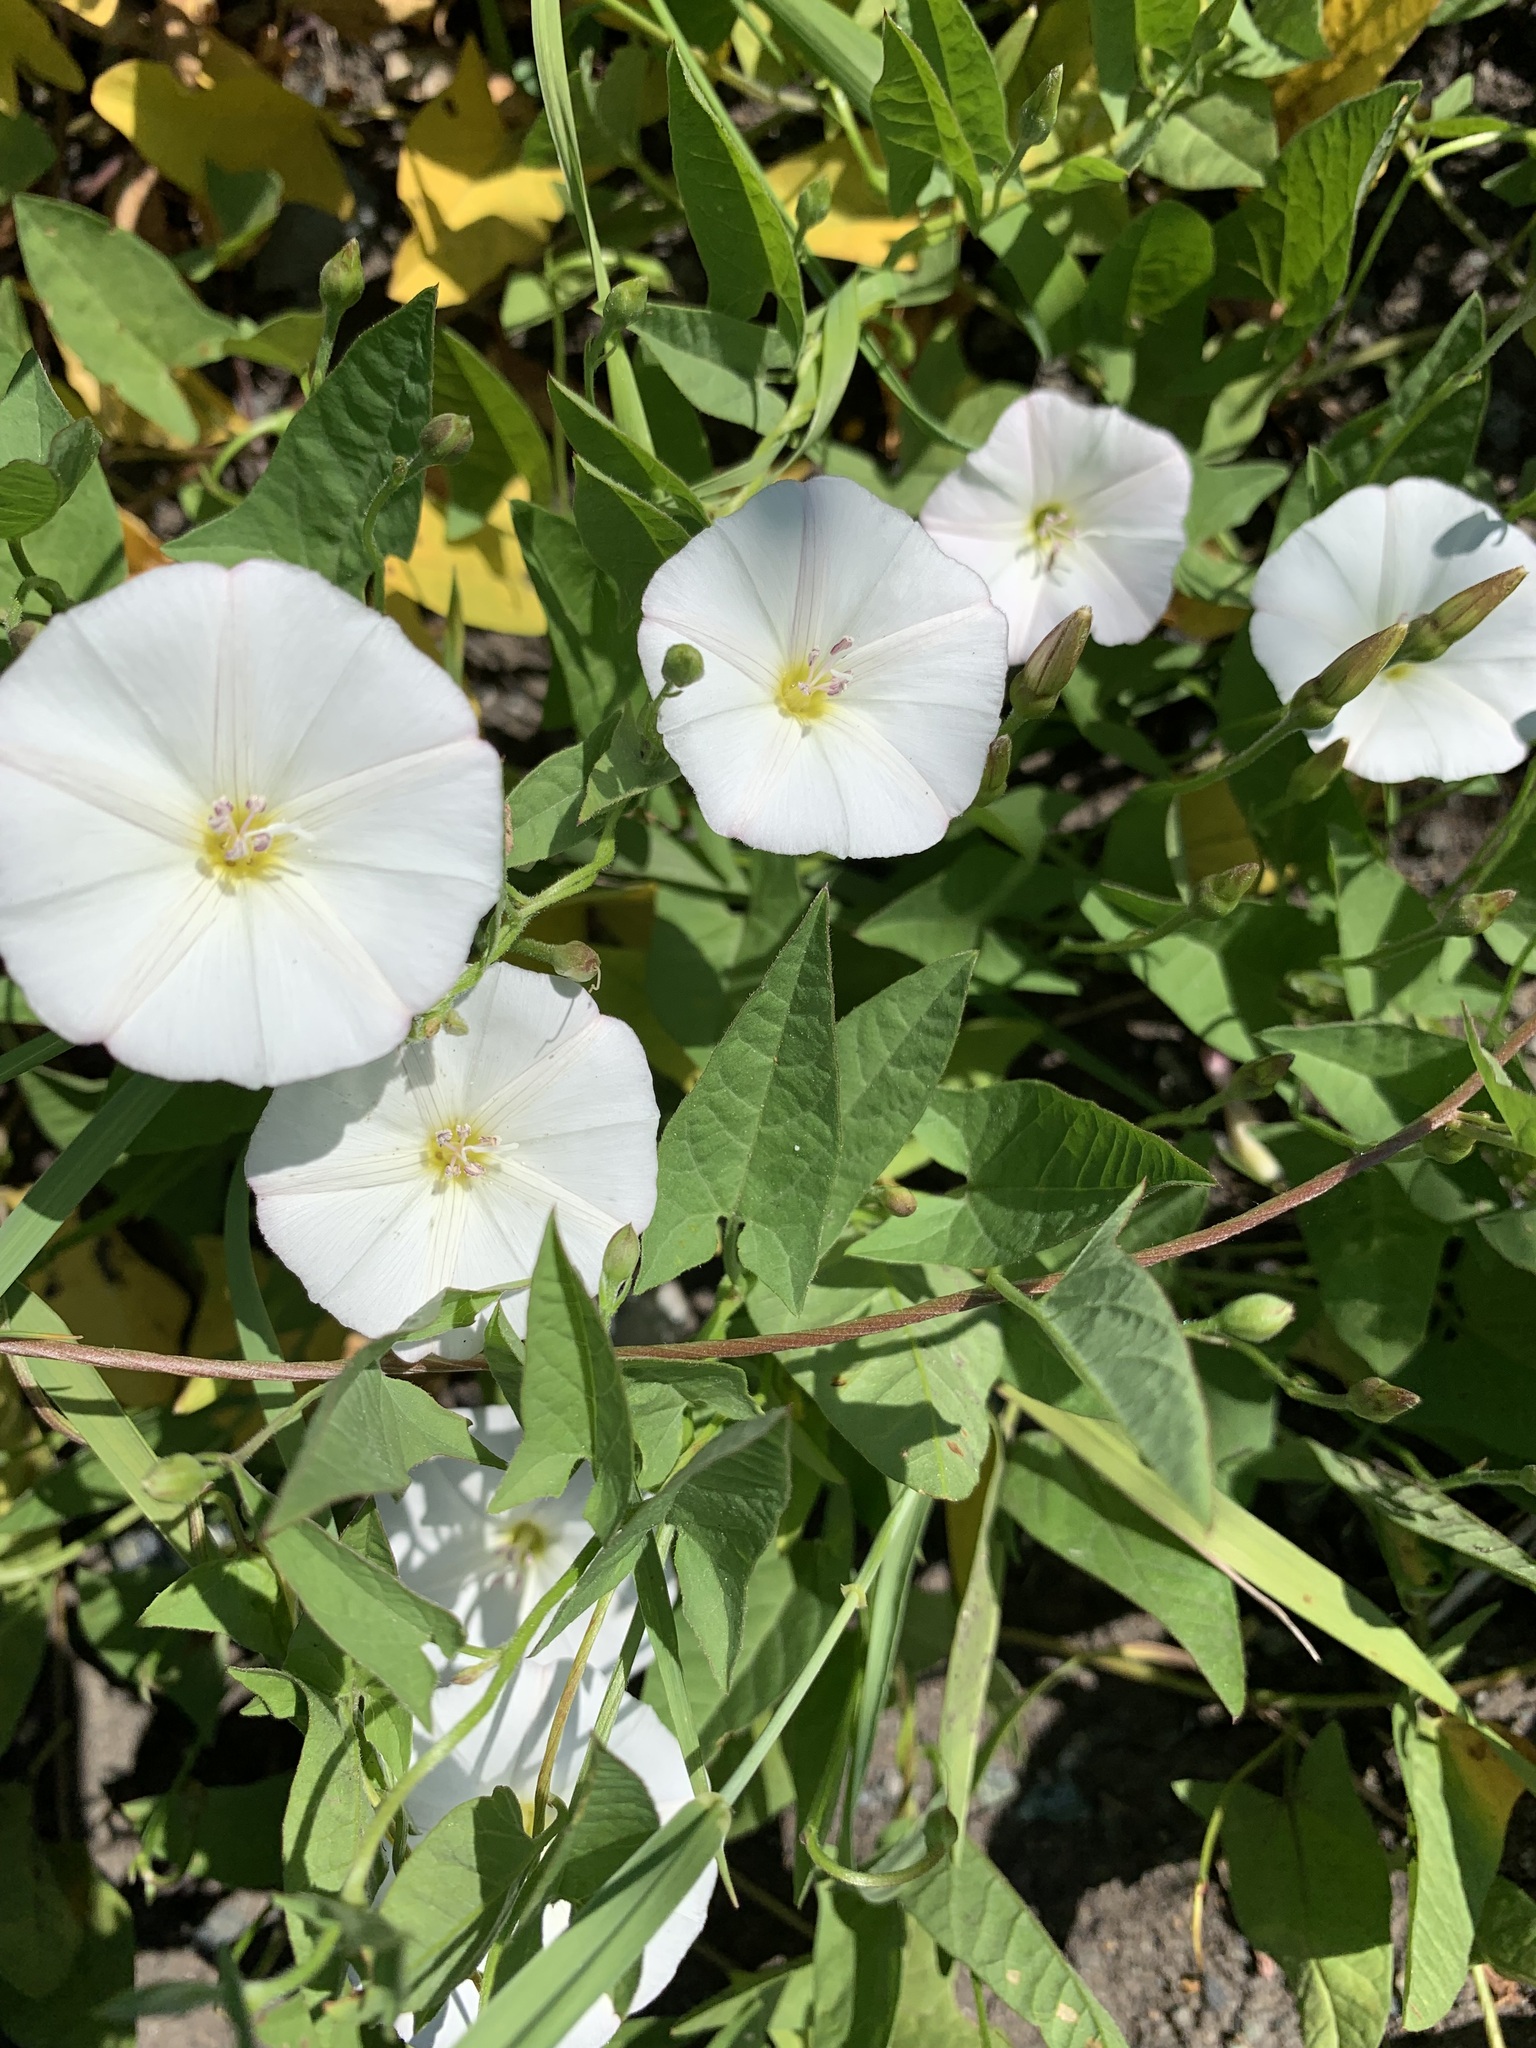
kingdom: Plantae
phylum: Tracheophyta
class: Magnoliopsida
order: Solanales
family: Convolvulaceae
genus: Convolvulus
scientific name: Convolvulus arvensis
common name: Field bindweed
